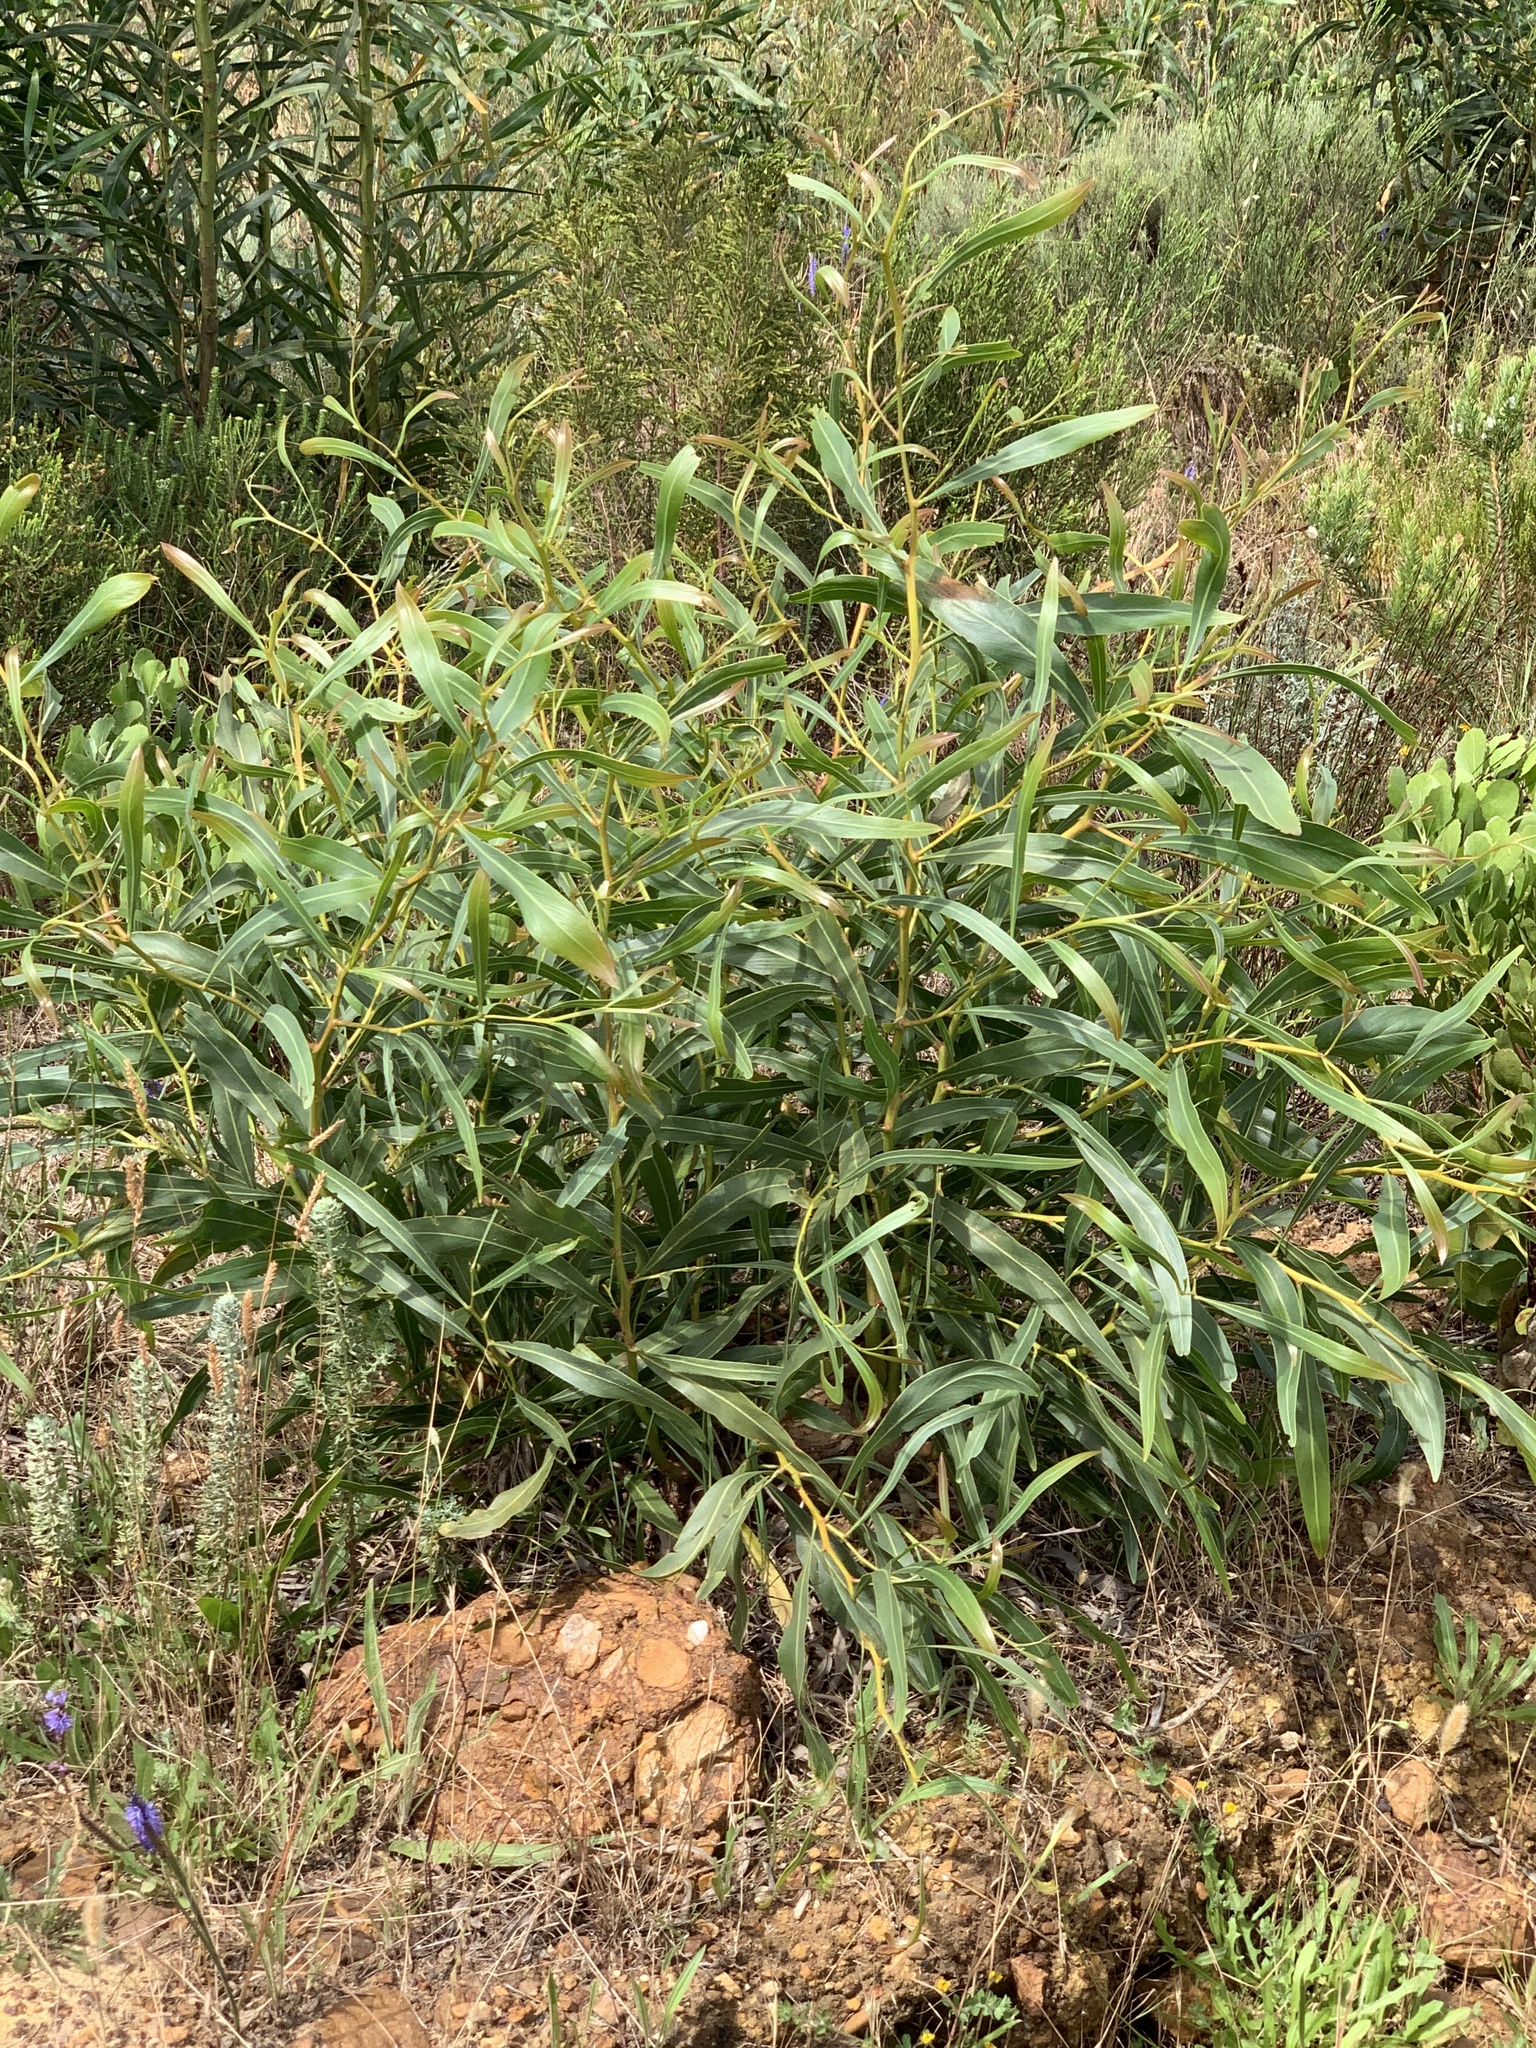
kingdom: Plantae
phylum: Tracheophyta
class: Magnoliopsida
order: Fabales
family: Fabaceae
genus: Acacia
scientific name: Acacia saligna
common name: Orange wattle
